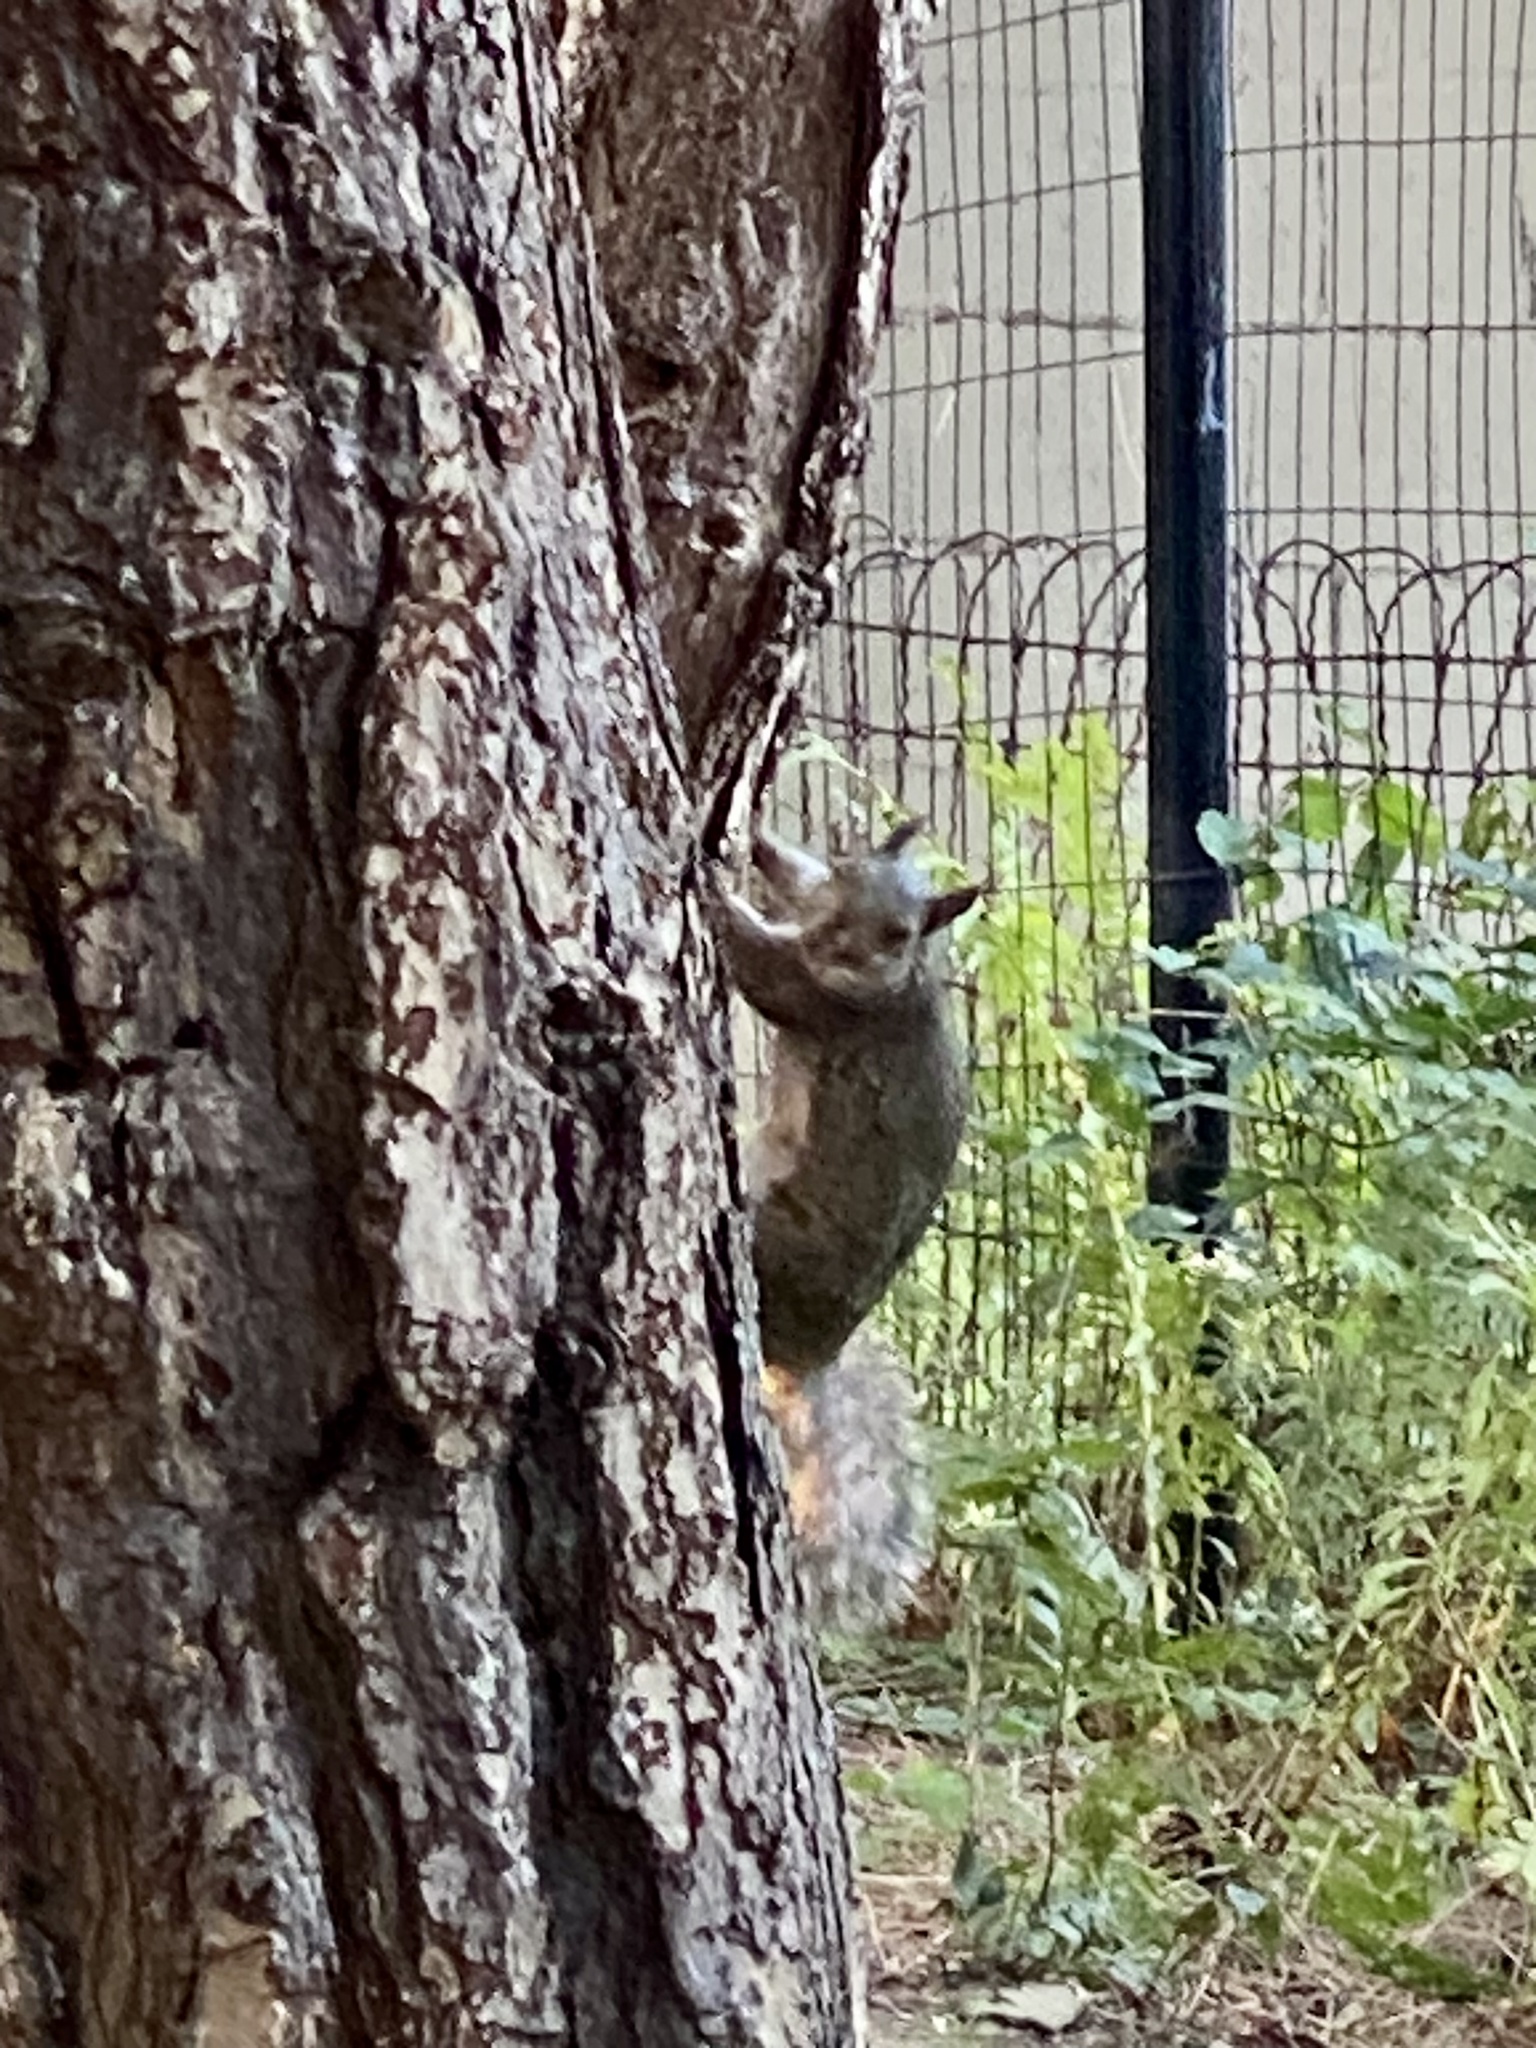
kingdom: Animalia
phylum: Chordata
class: Mammalia
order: Rodentia
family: Sciuridae
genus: Sciurus
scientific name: Sciurus carolinensis
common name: Eastern gray squirrel
